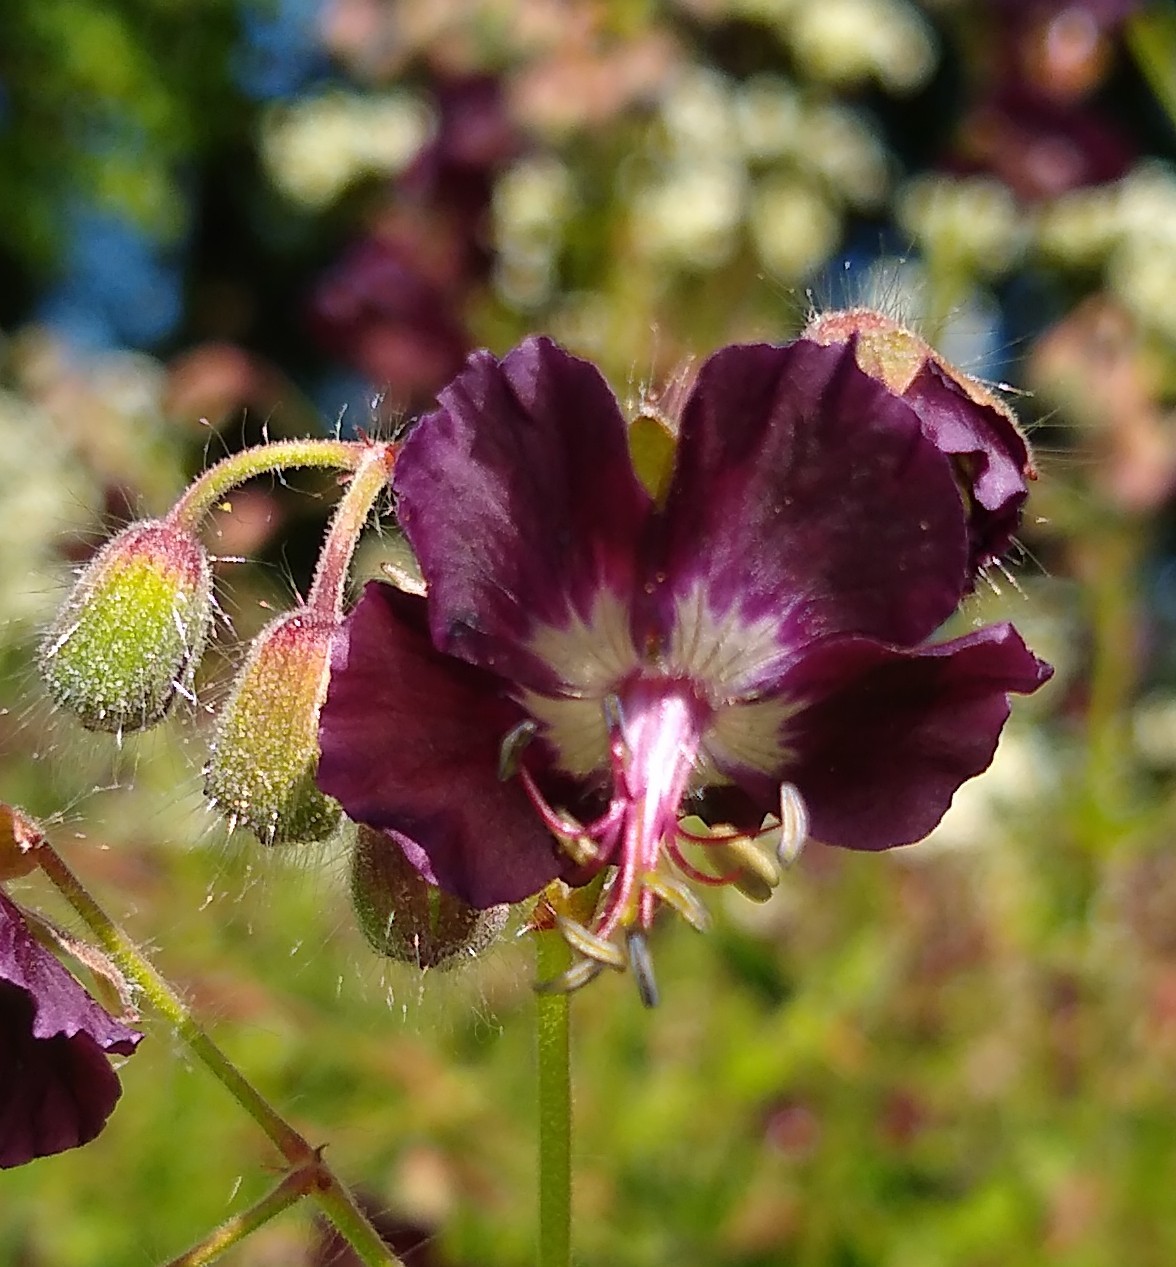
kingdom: Plantae
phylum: Tracheophyta
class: Magnoliopsida
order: Geraniales
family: Geraniaceae
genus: Geranium
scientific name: Geranium phaeum
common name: Dusky crane's-bill
